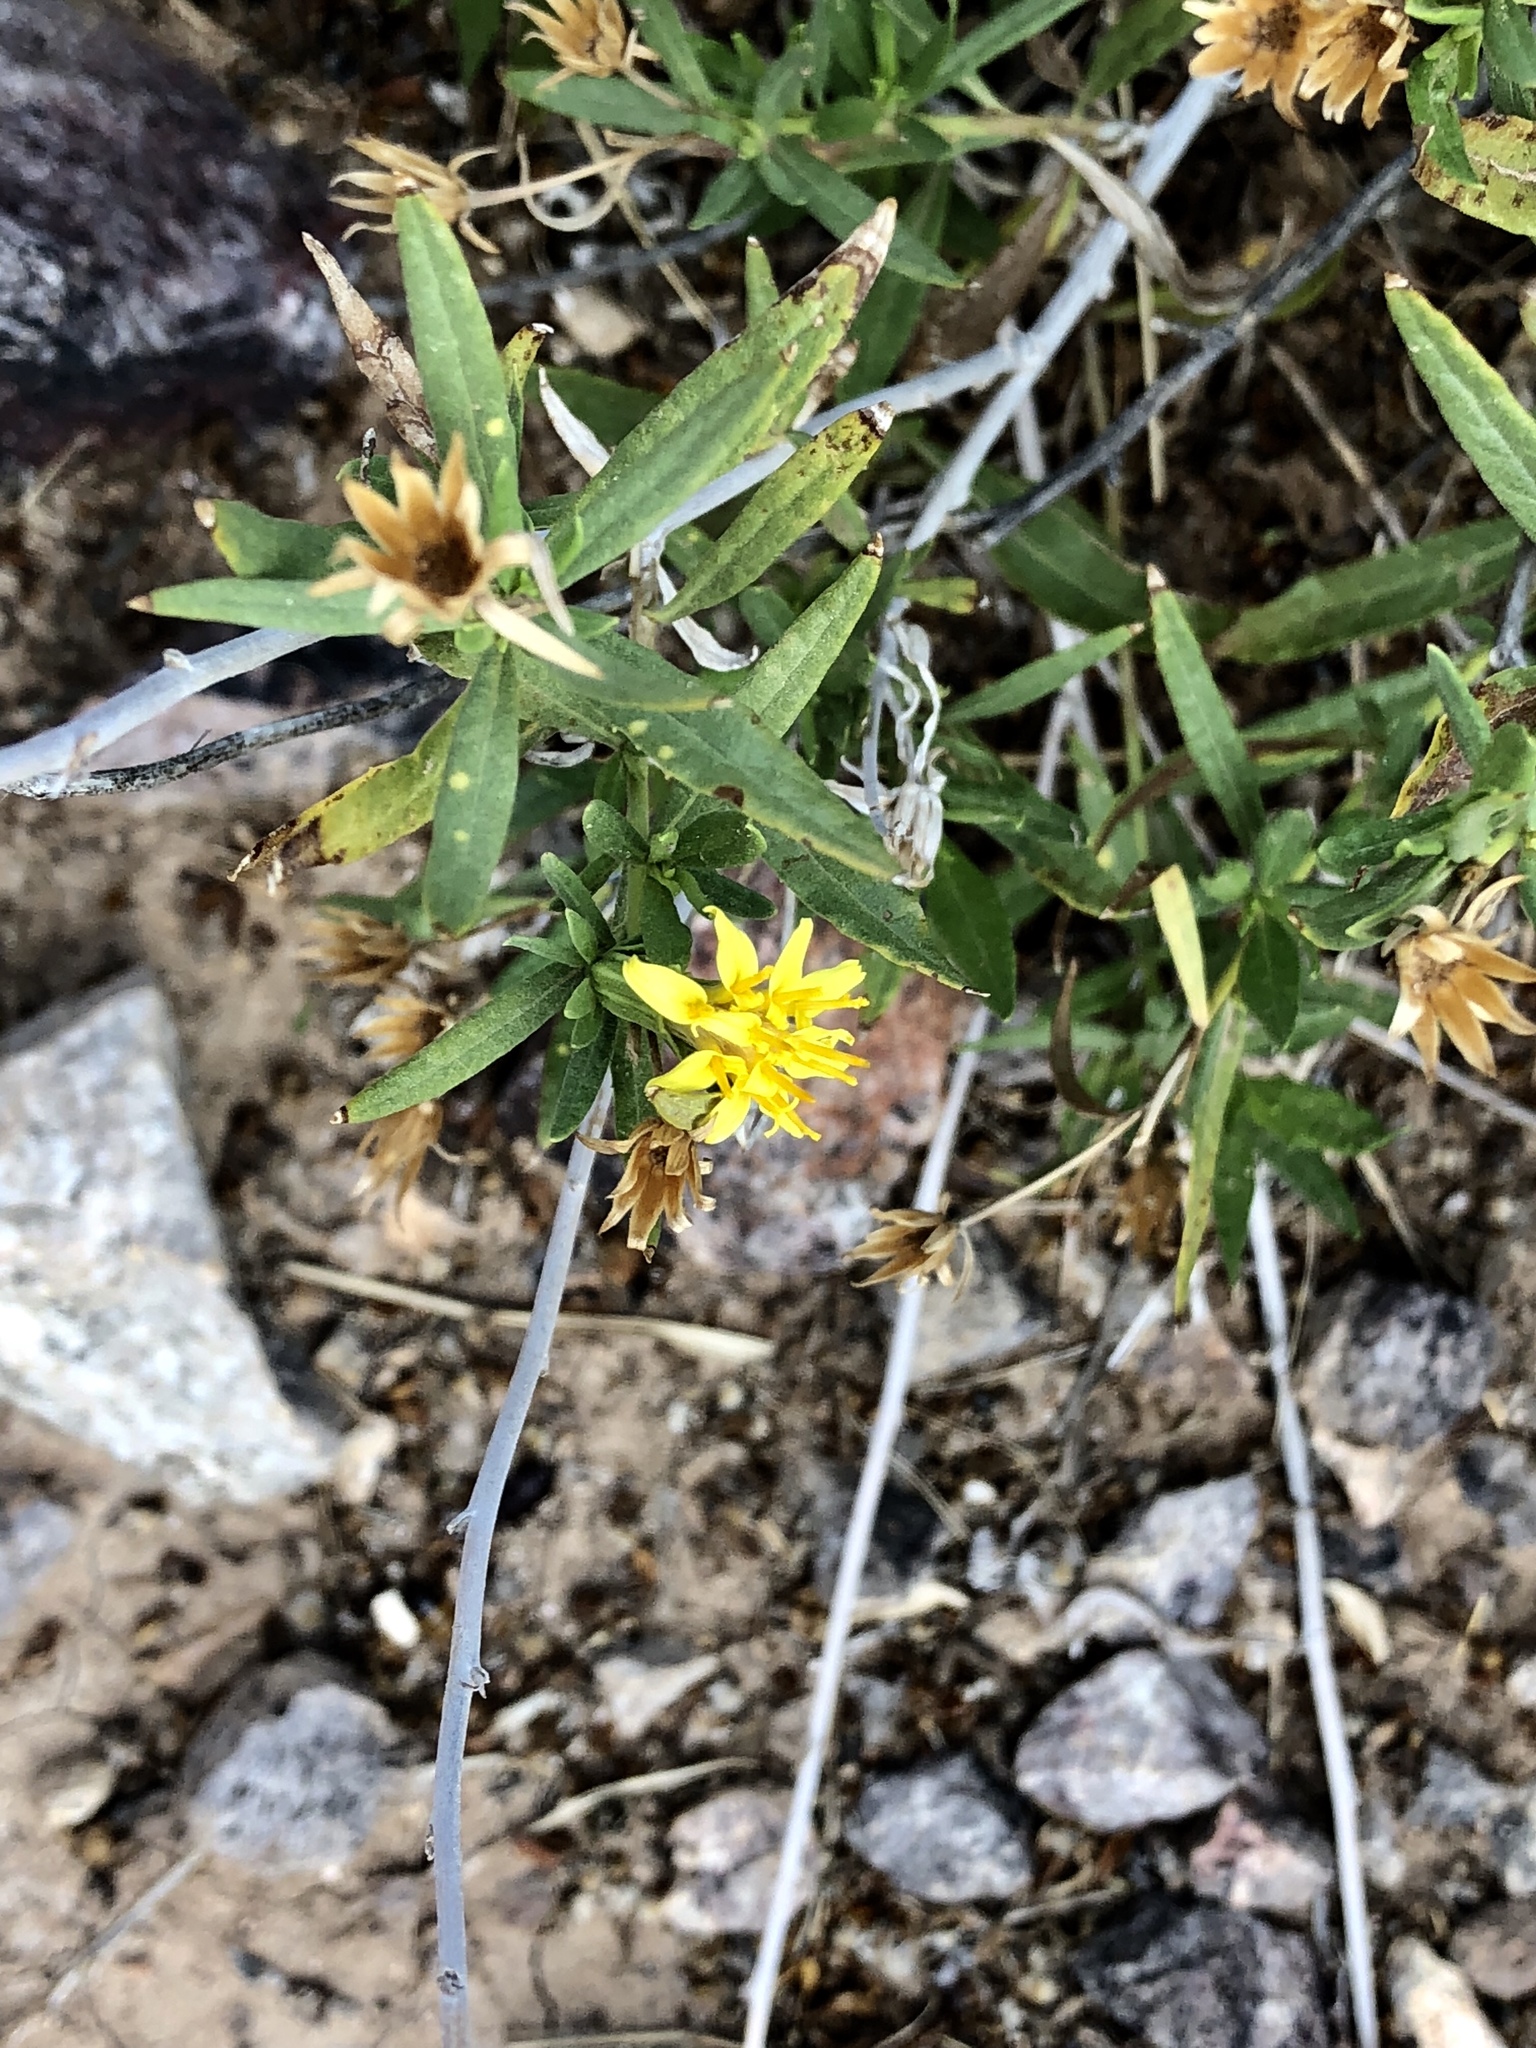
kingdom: Plantae
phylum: Tracheophyta
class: Magnoliopsida
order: Asterales
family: Asteraceae
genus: Trixis
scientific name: Trixis californica
